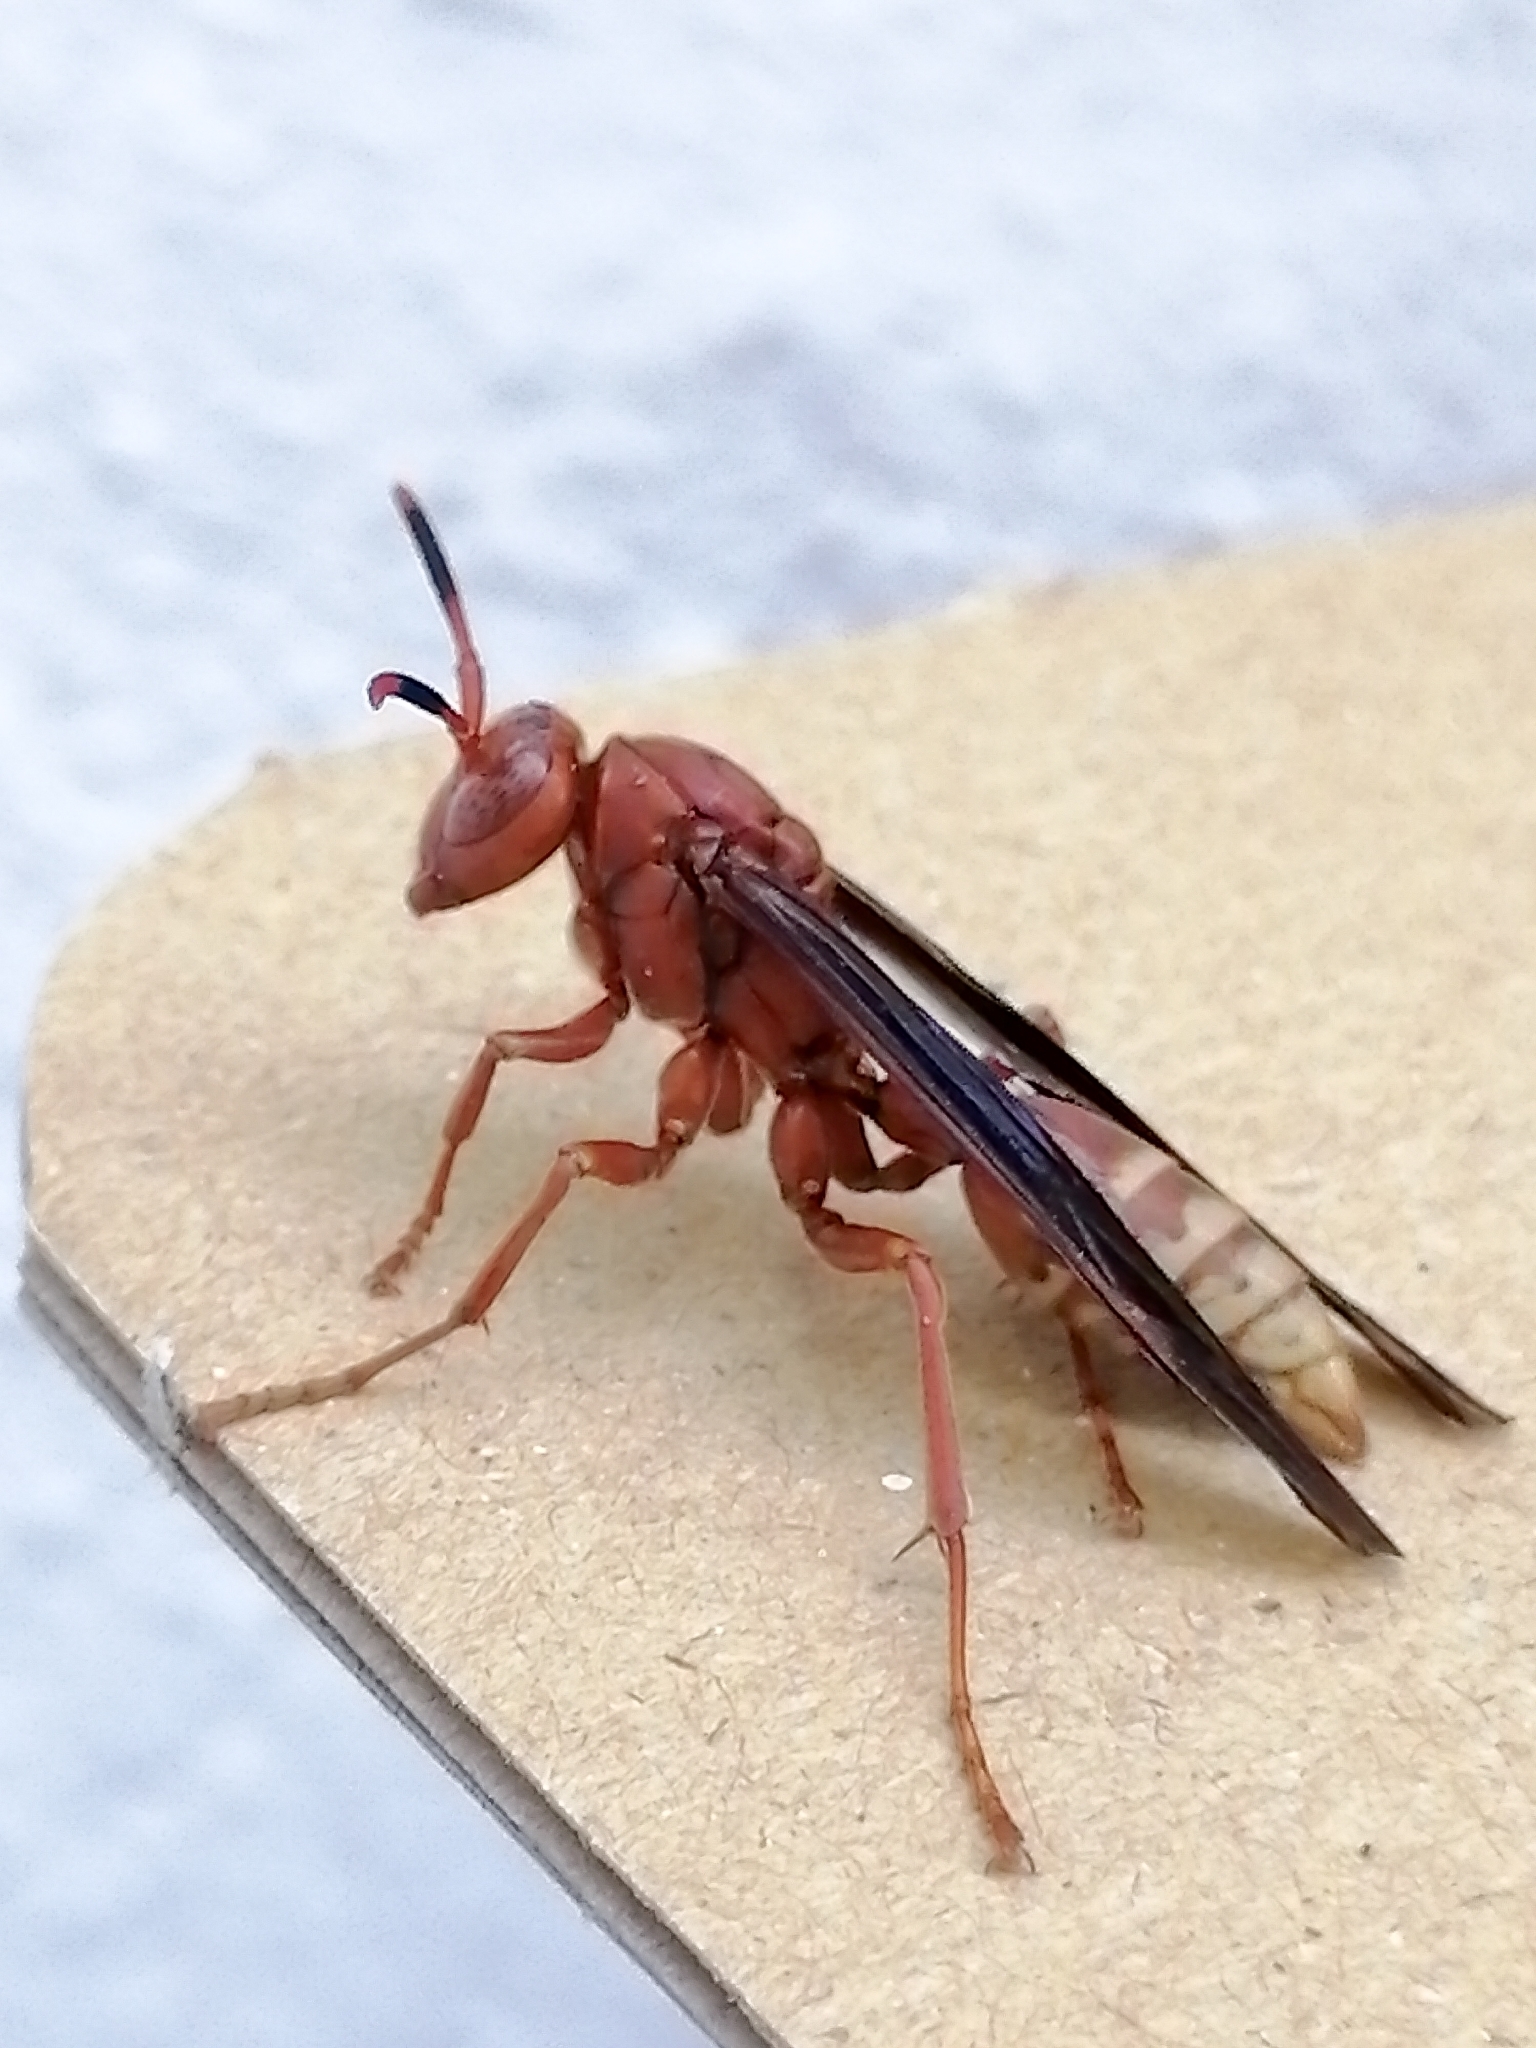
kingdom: Animalia
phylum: Arthropoda
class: Insecta
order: Hymenoptera
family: Eumenidae
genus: Polistes
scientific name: Polistes mexicanus
